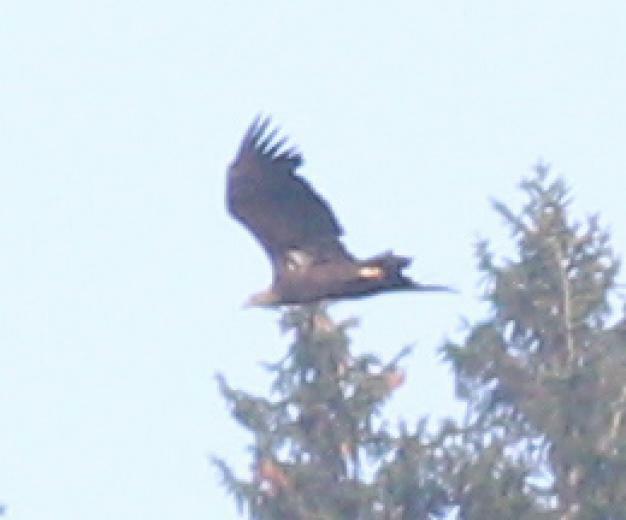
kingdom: Animalia
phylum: Chordata
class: Aves
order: Accipitriformes
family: Accipitridae
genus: Haliaeetus
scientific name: Haliaeetus albicilla
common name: White-tailed eagle
